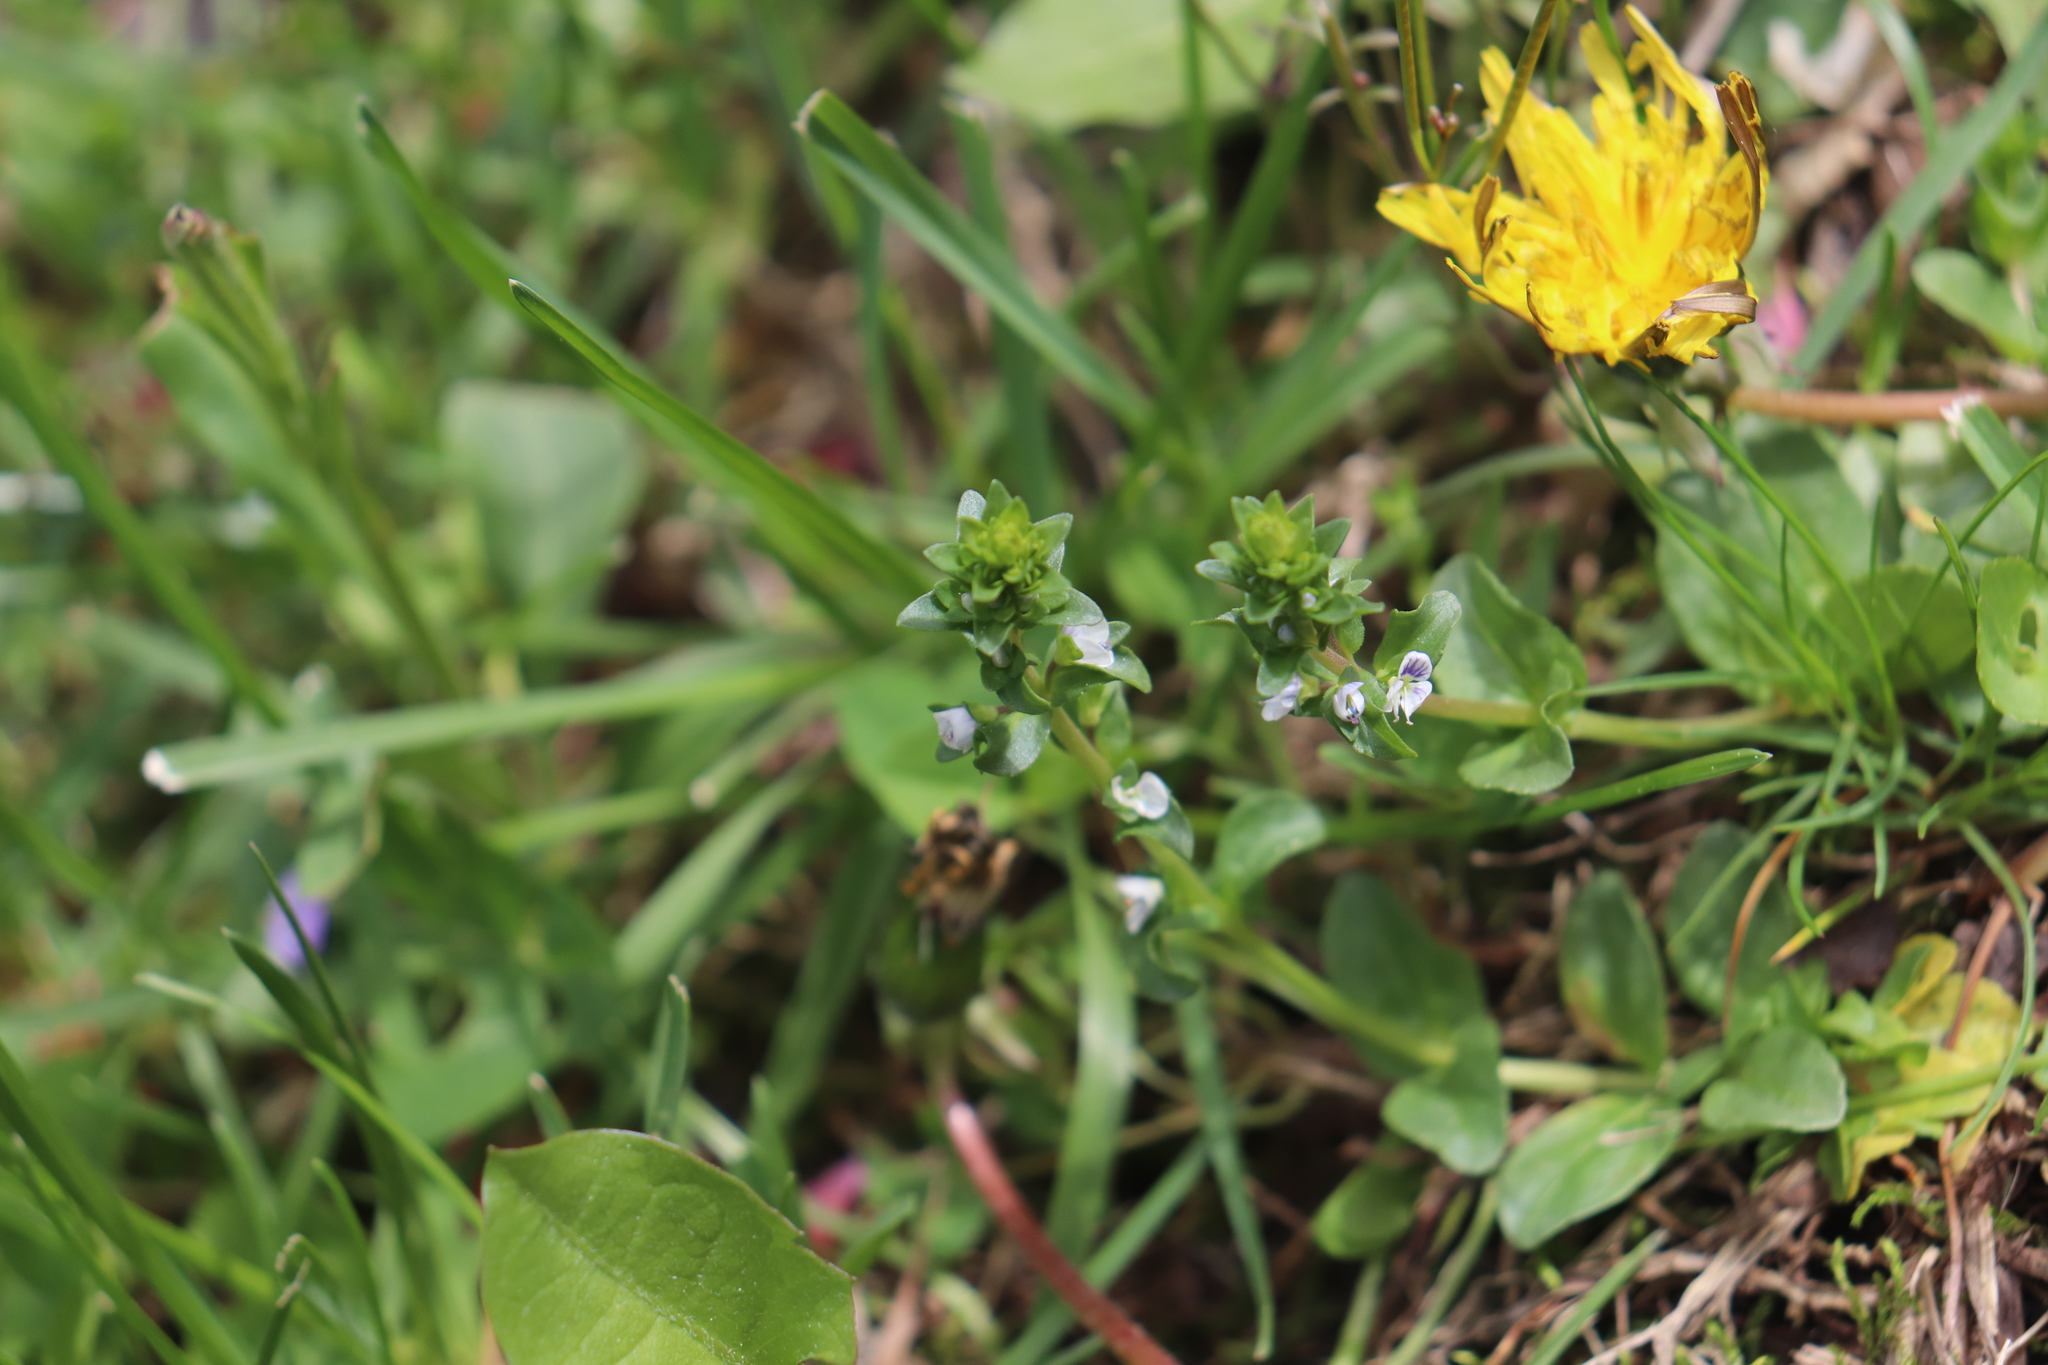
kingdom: Plantae
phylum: Tracheophyta
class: Magnoliopsida
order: Lamiales
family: Plantaginaceae
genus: Veronica
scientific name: Veronica serpyllifolia
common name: Thyme-leaved speedwell
